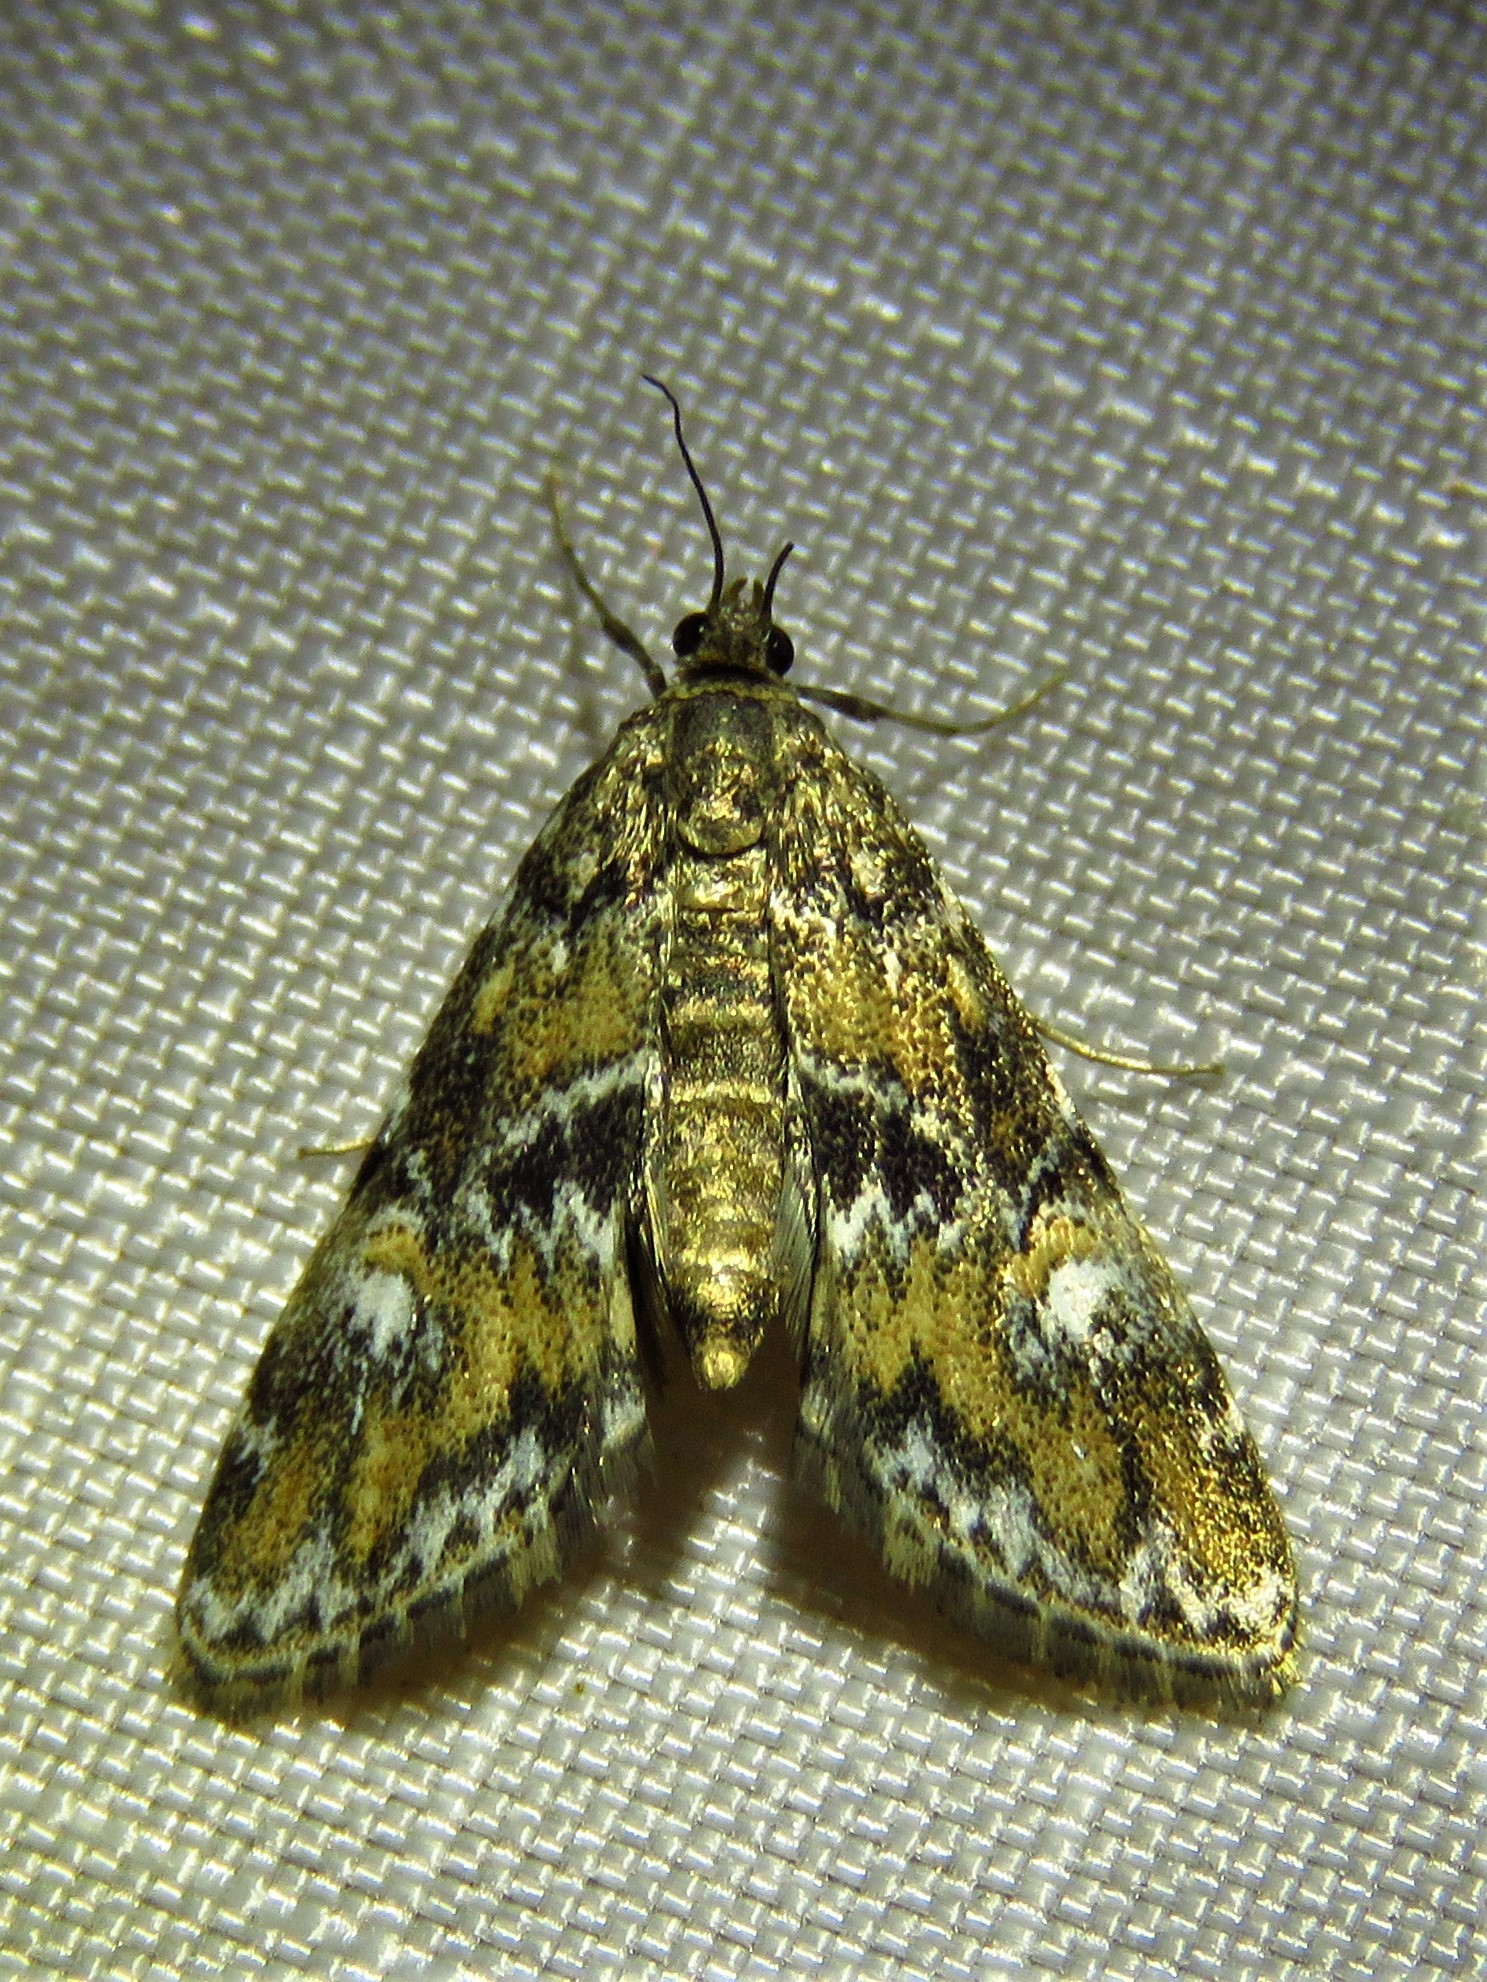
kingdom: Animalia
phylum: Arthropoda
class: Insecta
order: Lepidoptera
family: Crambidae
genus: Elophila
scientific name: Elophila obliteralis
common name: Waterlily leafcutter moth
